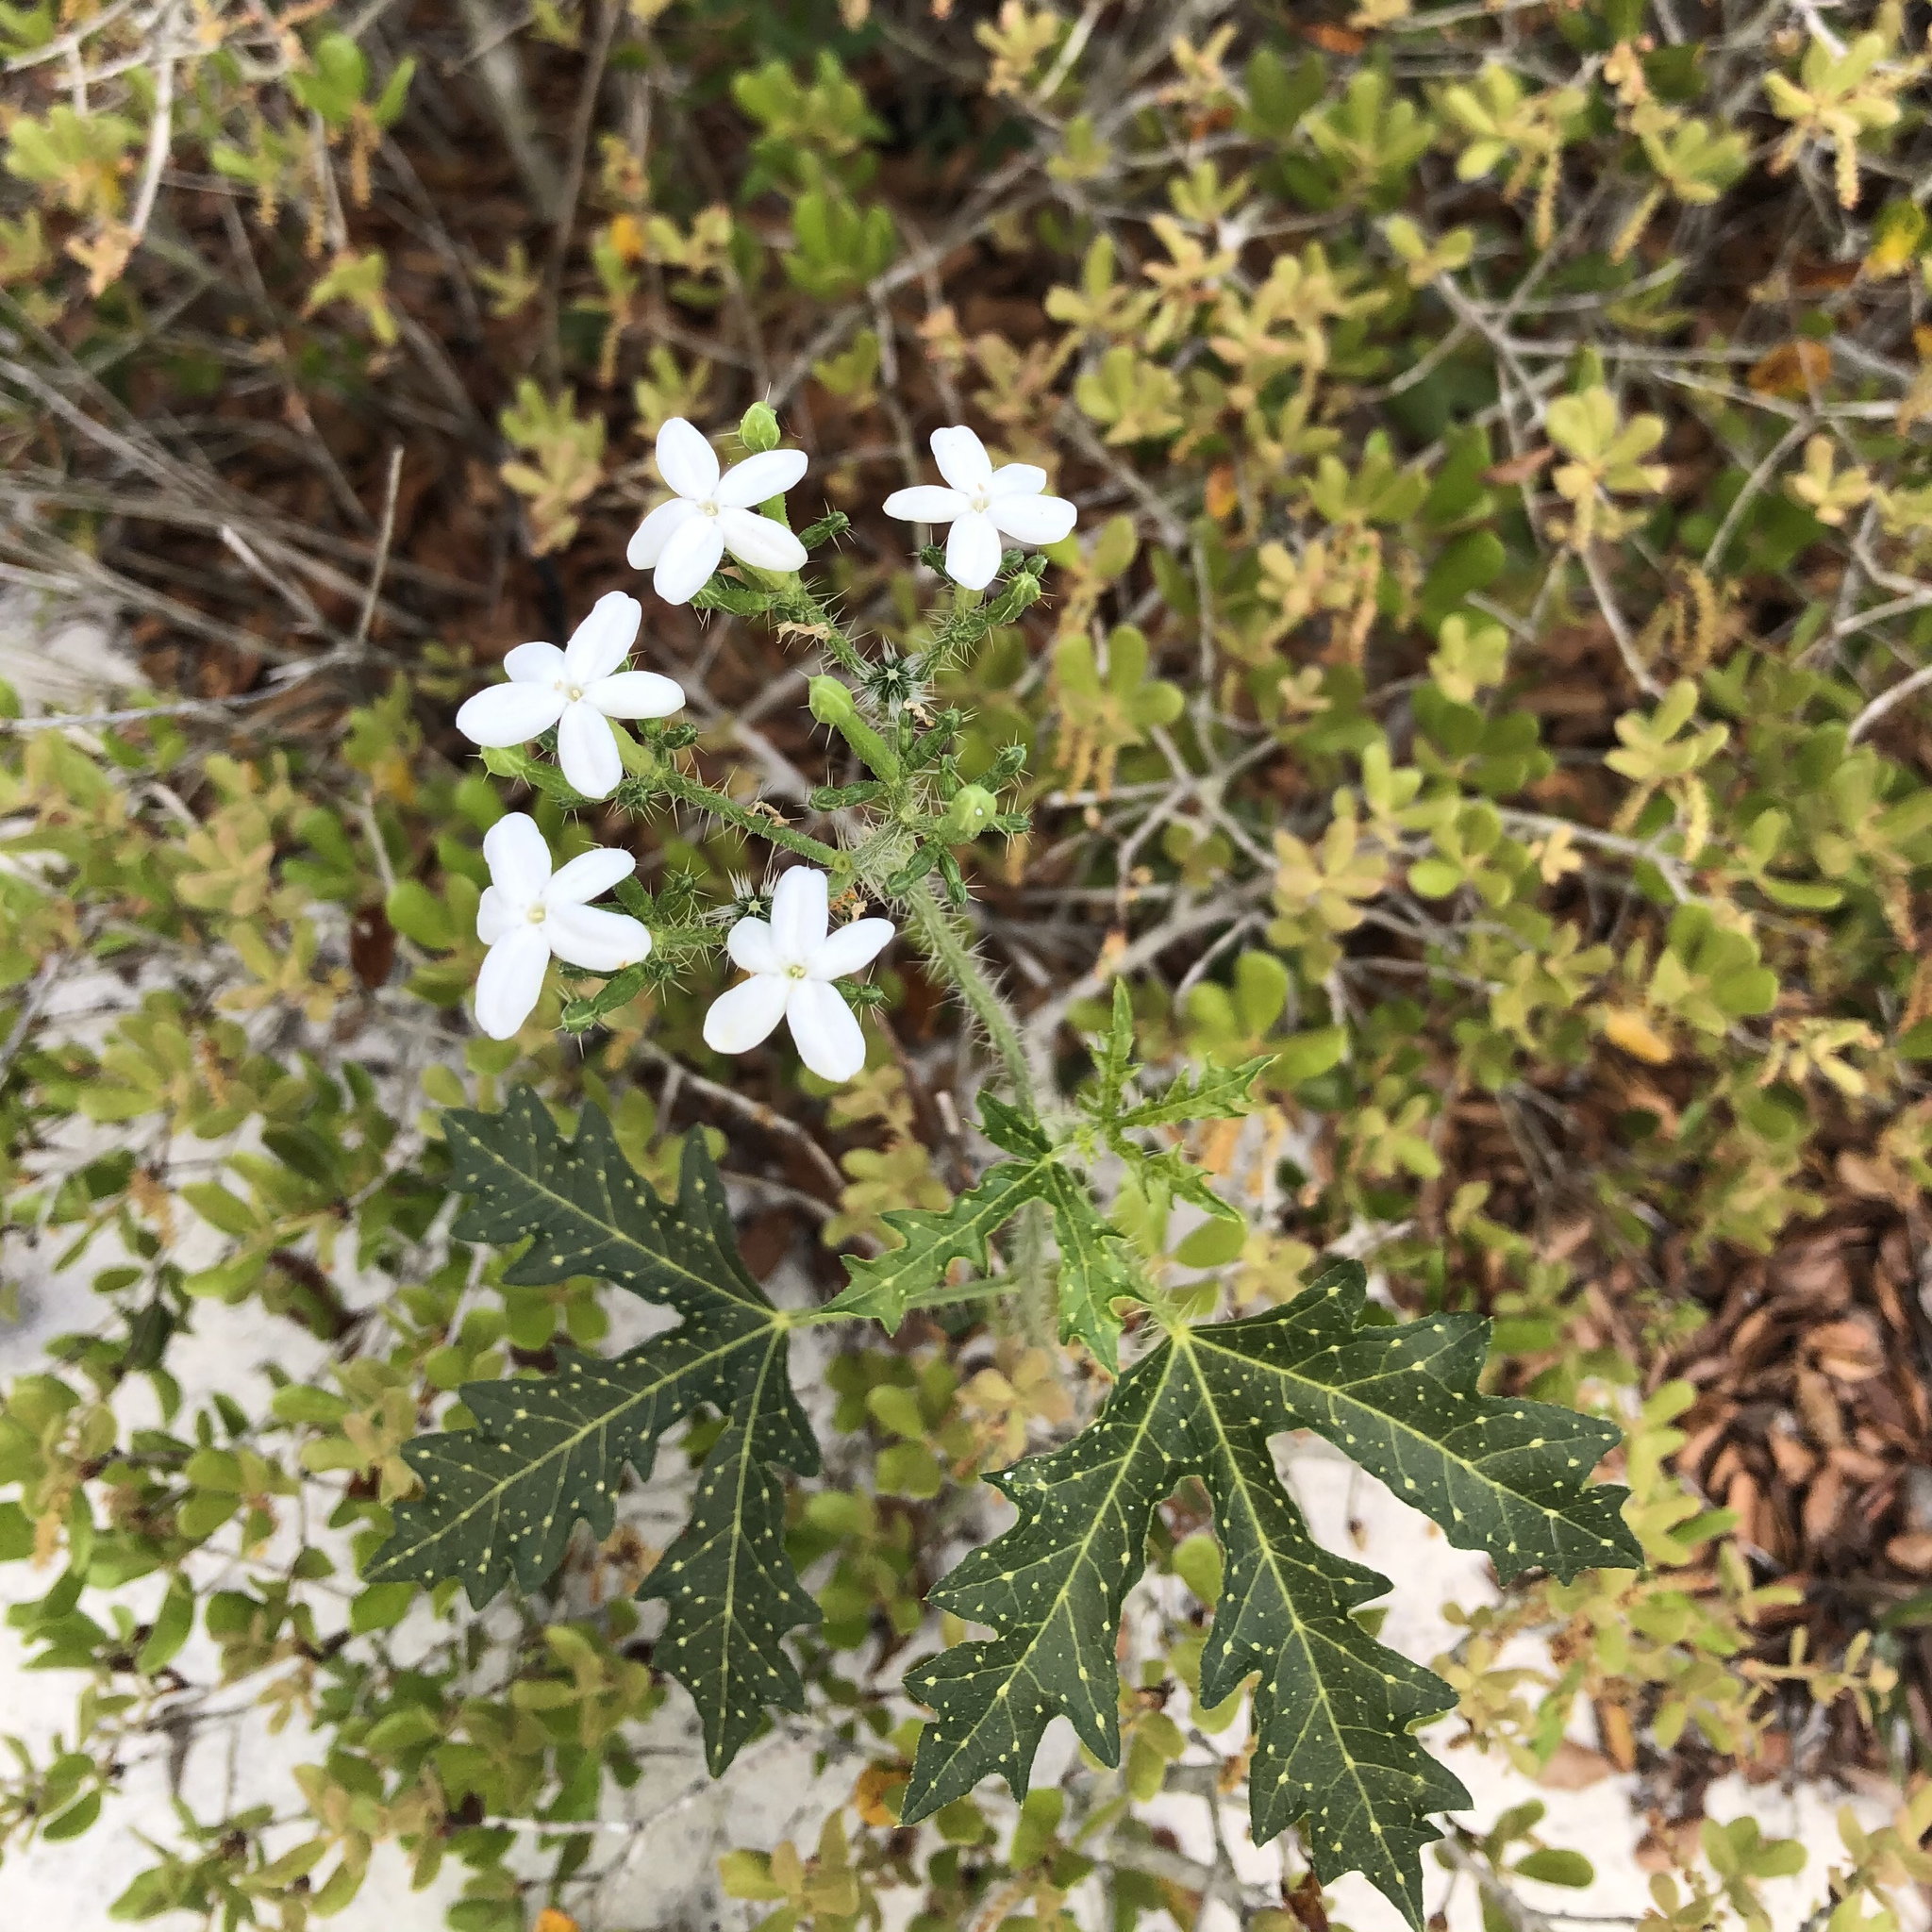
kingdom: Plantae
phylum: Tracheophyta
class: Magnoliopsida
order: Malpighiales
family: Euphorbiaceae
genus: Cnidoscolus
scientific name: Cnidoscolus stimulosus
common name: Bull-nettle
